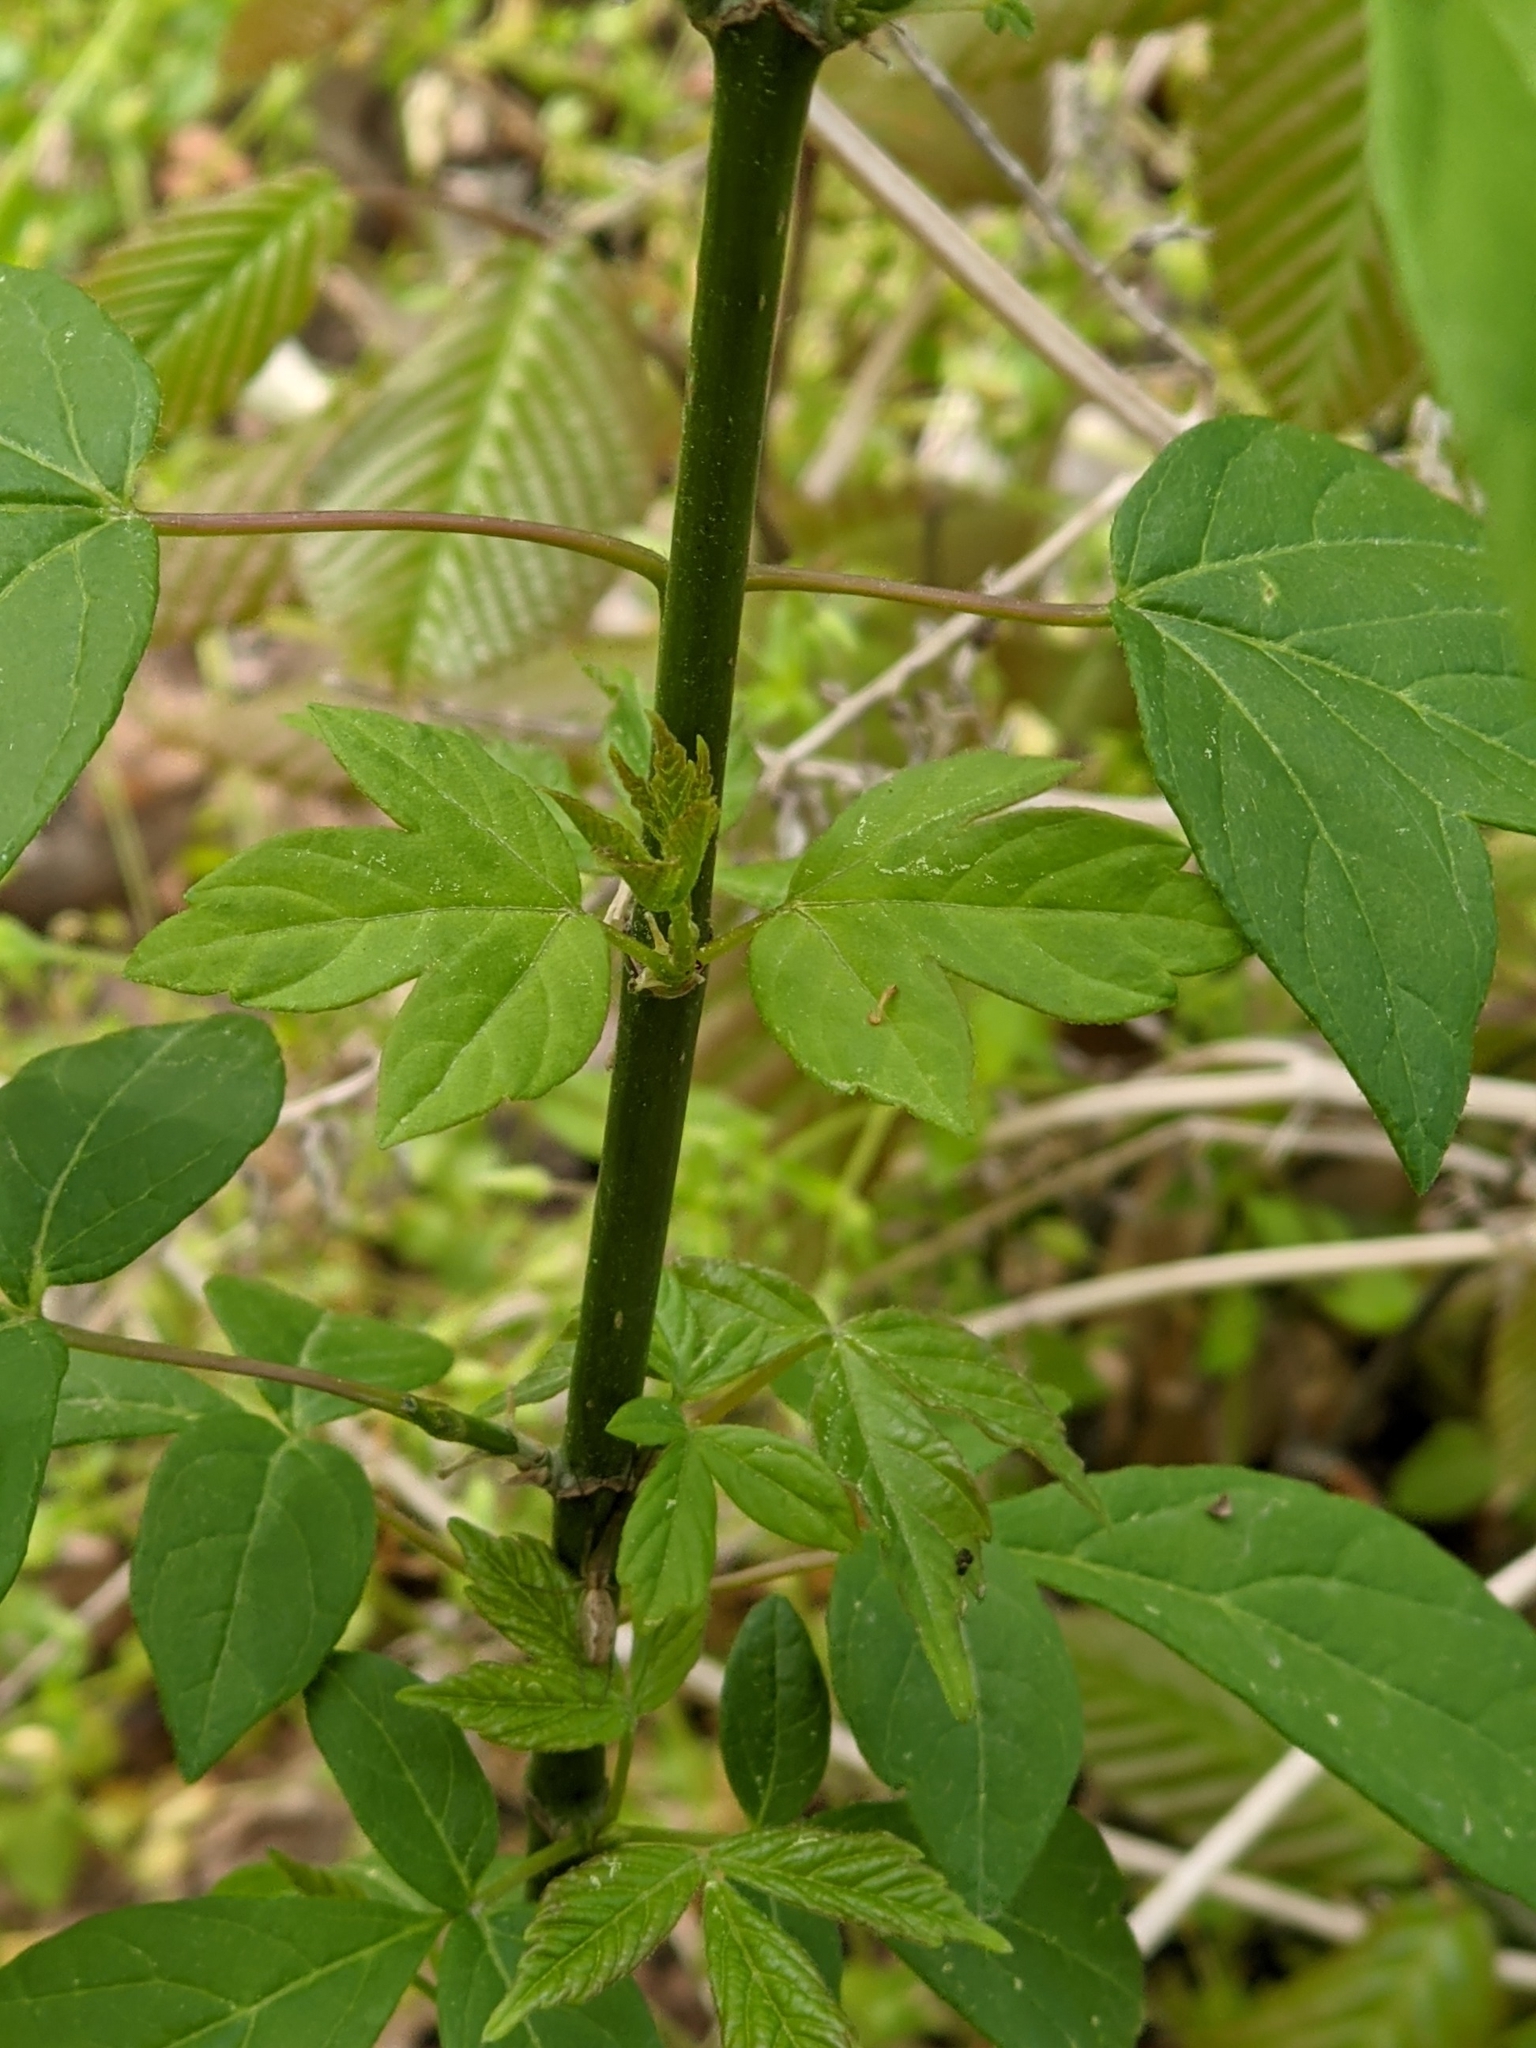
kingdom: Plantae
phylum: Tracheophyta
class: Magnoliopsida
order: Sapindales
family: Sapindaceae
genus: Acer
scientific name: Acer negundo
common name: Ashleaf maple
